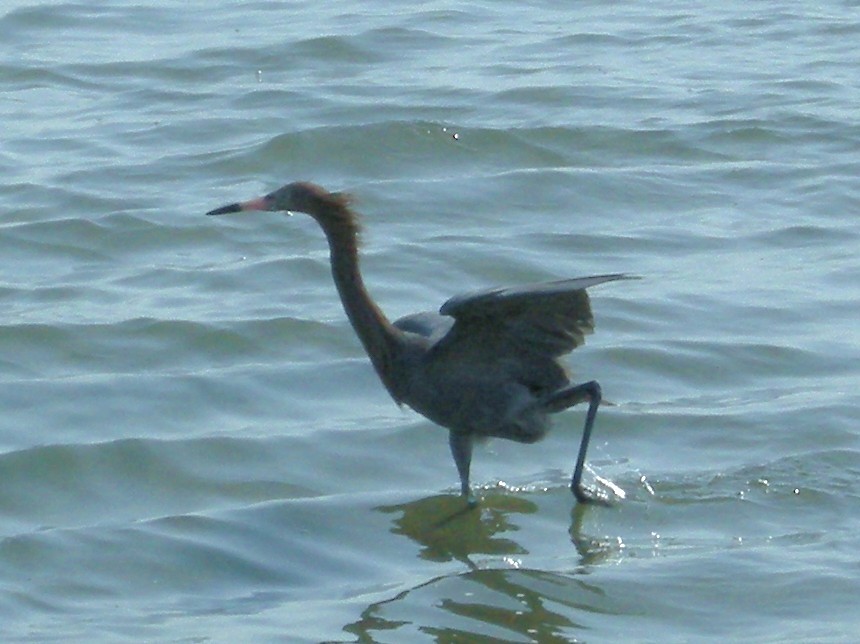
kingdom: Animalia
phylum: Chordata
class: Aves
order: Pelecaniformes
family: Ardeidae
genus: Egretta
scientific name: Egretta rufescens
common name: Reddish egret
